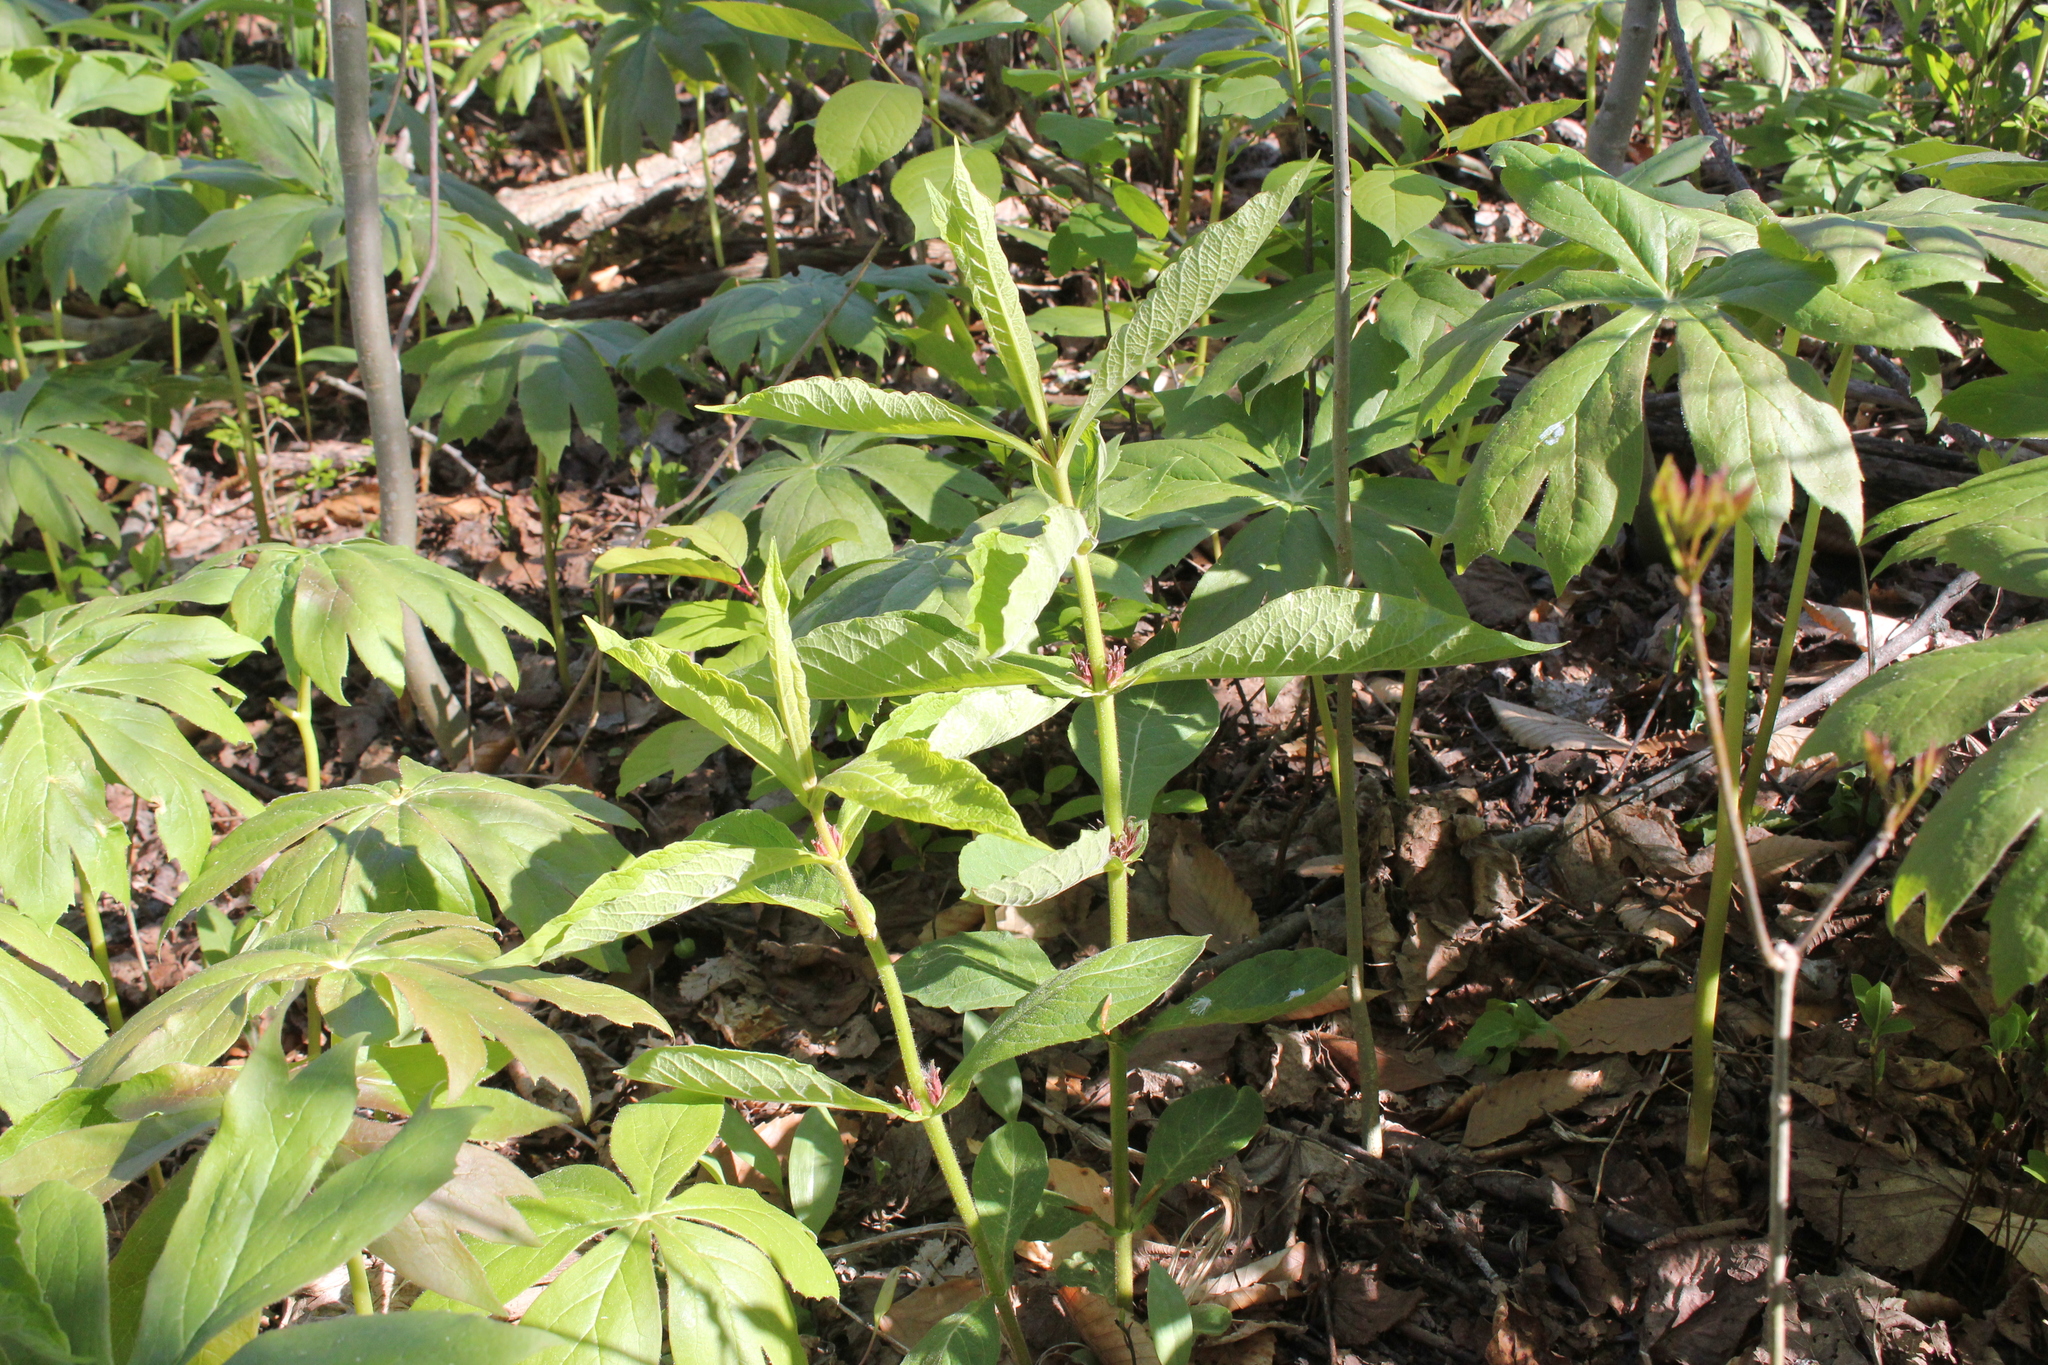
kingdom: Plantae
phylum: Tracheophyta
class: Magnoliopsida
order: Dipsacales
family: Caprifoliaceae
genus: Triosteum
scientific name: Triosteum aurantiacum
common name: Coffee tinker's-weed
